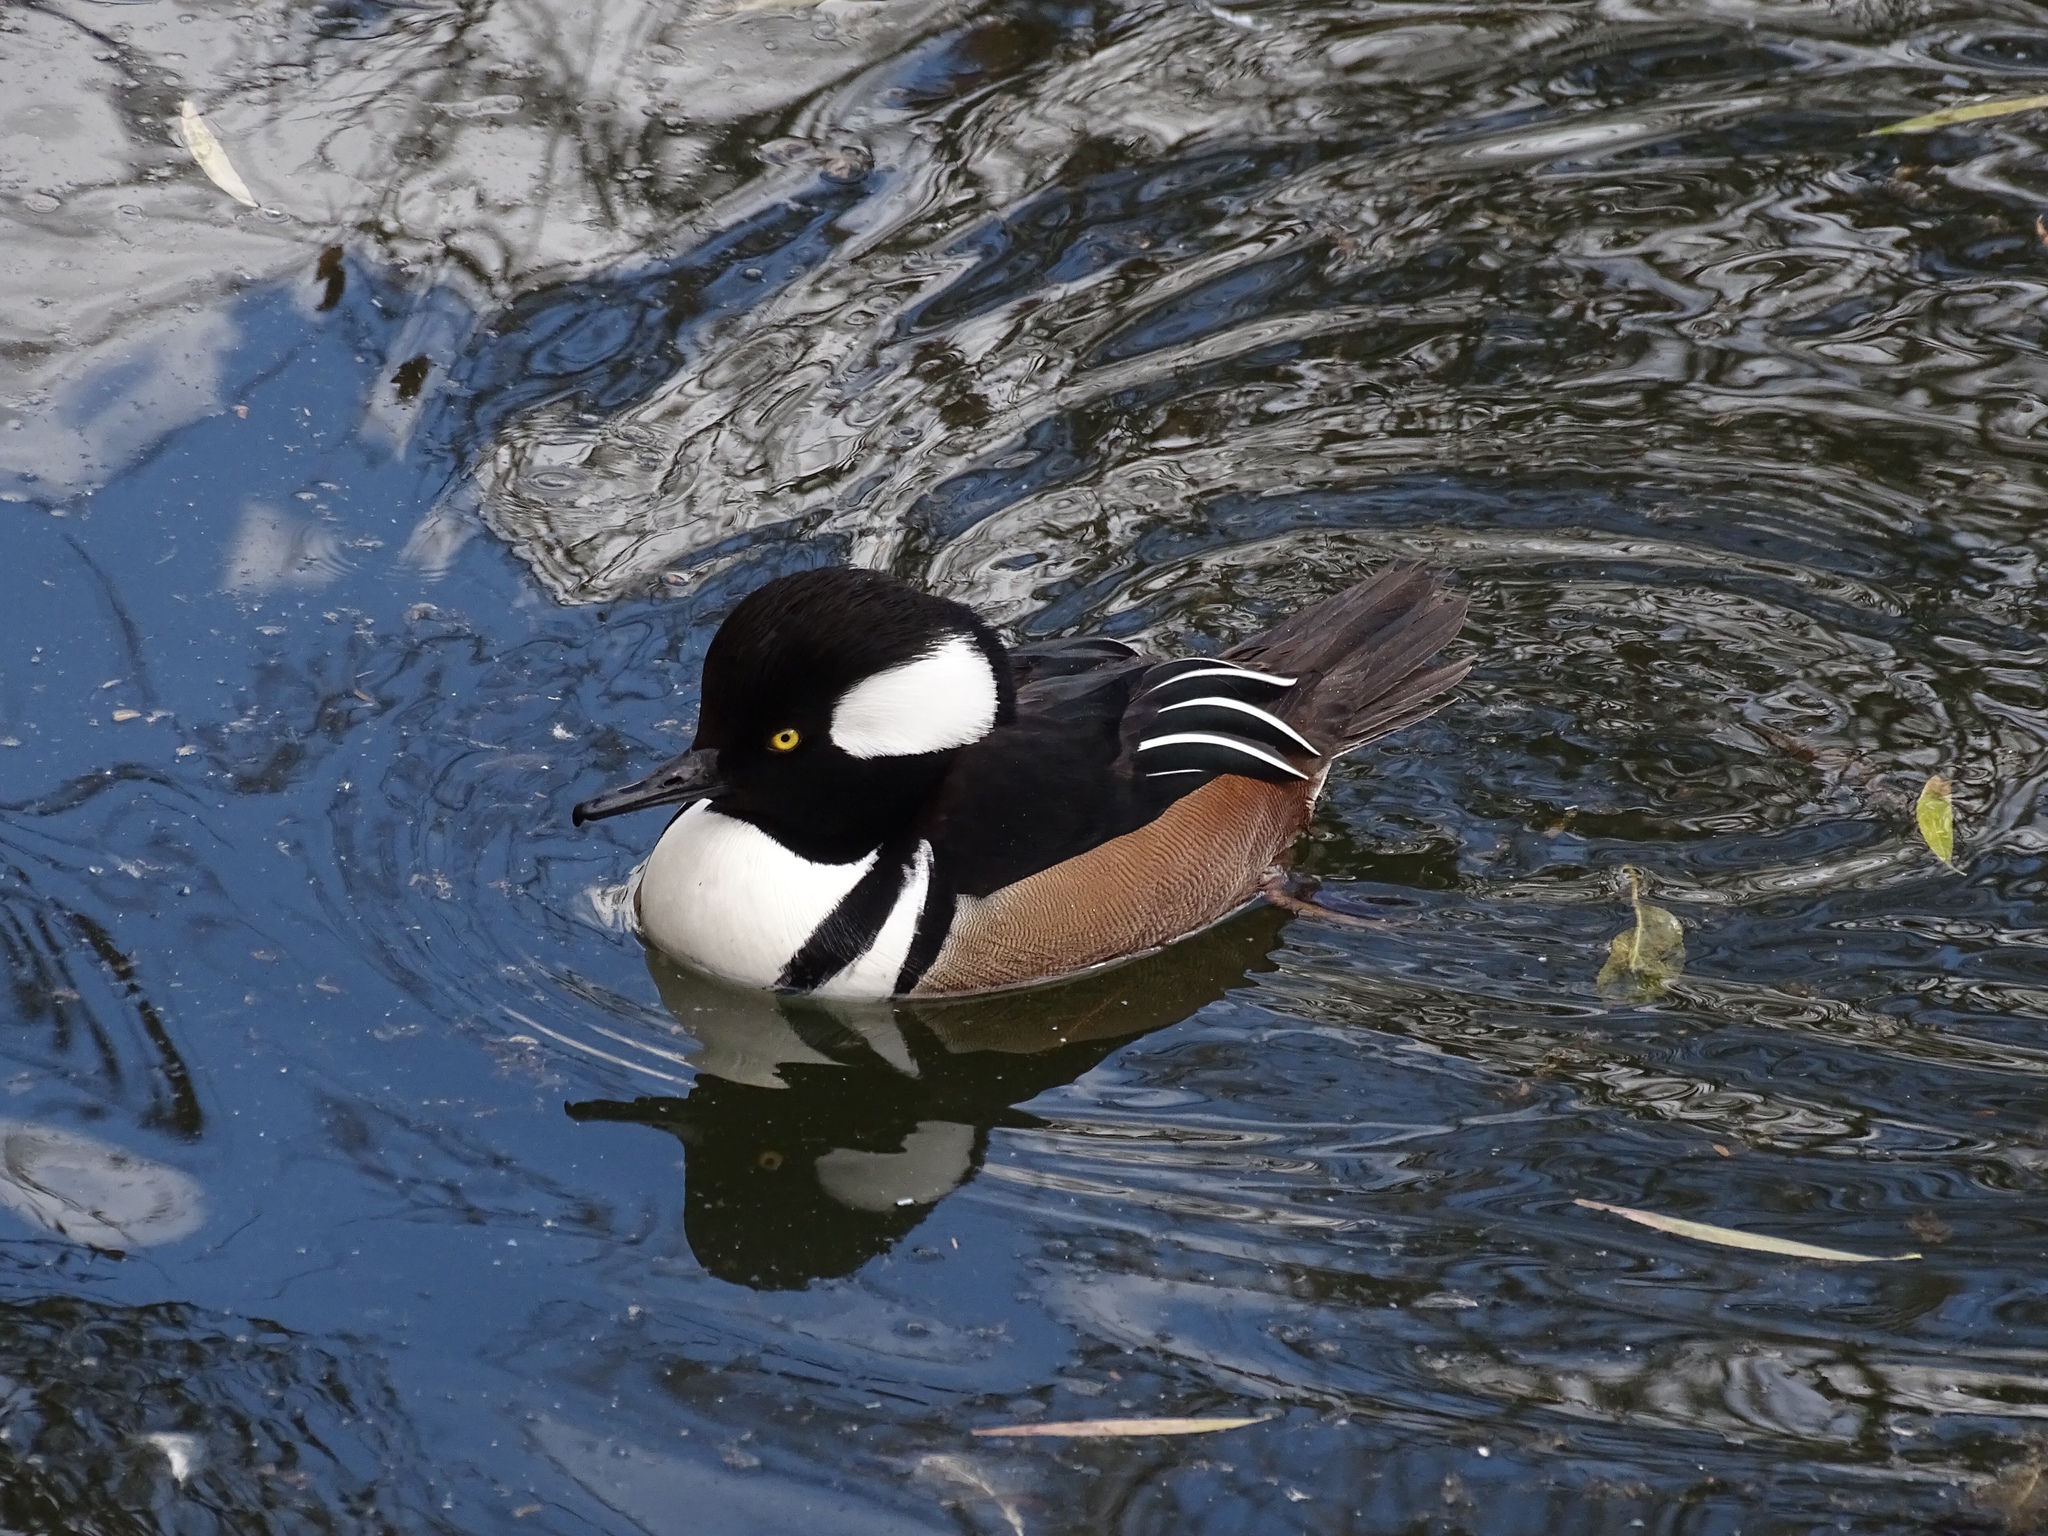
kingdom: Animalia
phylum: Chordata
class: Aves
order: Anseriformes
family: Anatidae
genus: Lophodytes
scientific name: Lophodytes cucullatus
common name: Hooded merganser
